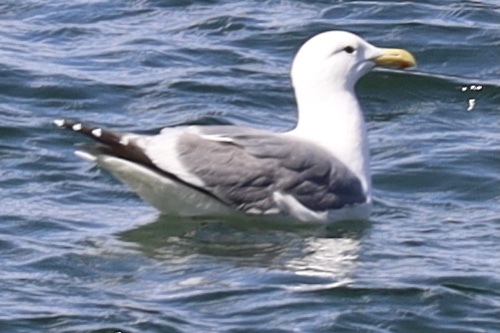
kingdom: Animalia
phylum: Chordata
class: Aves
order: Charadriiformes
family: Laridae
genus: Larus
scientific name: Larus
